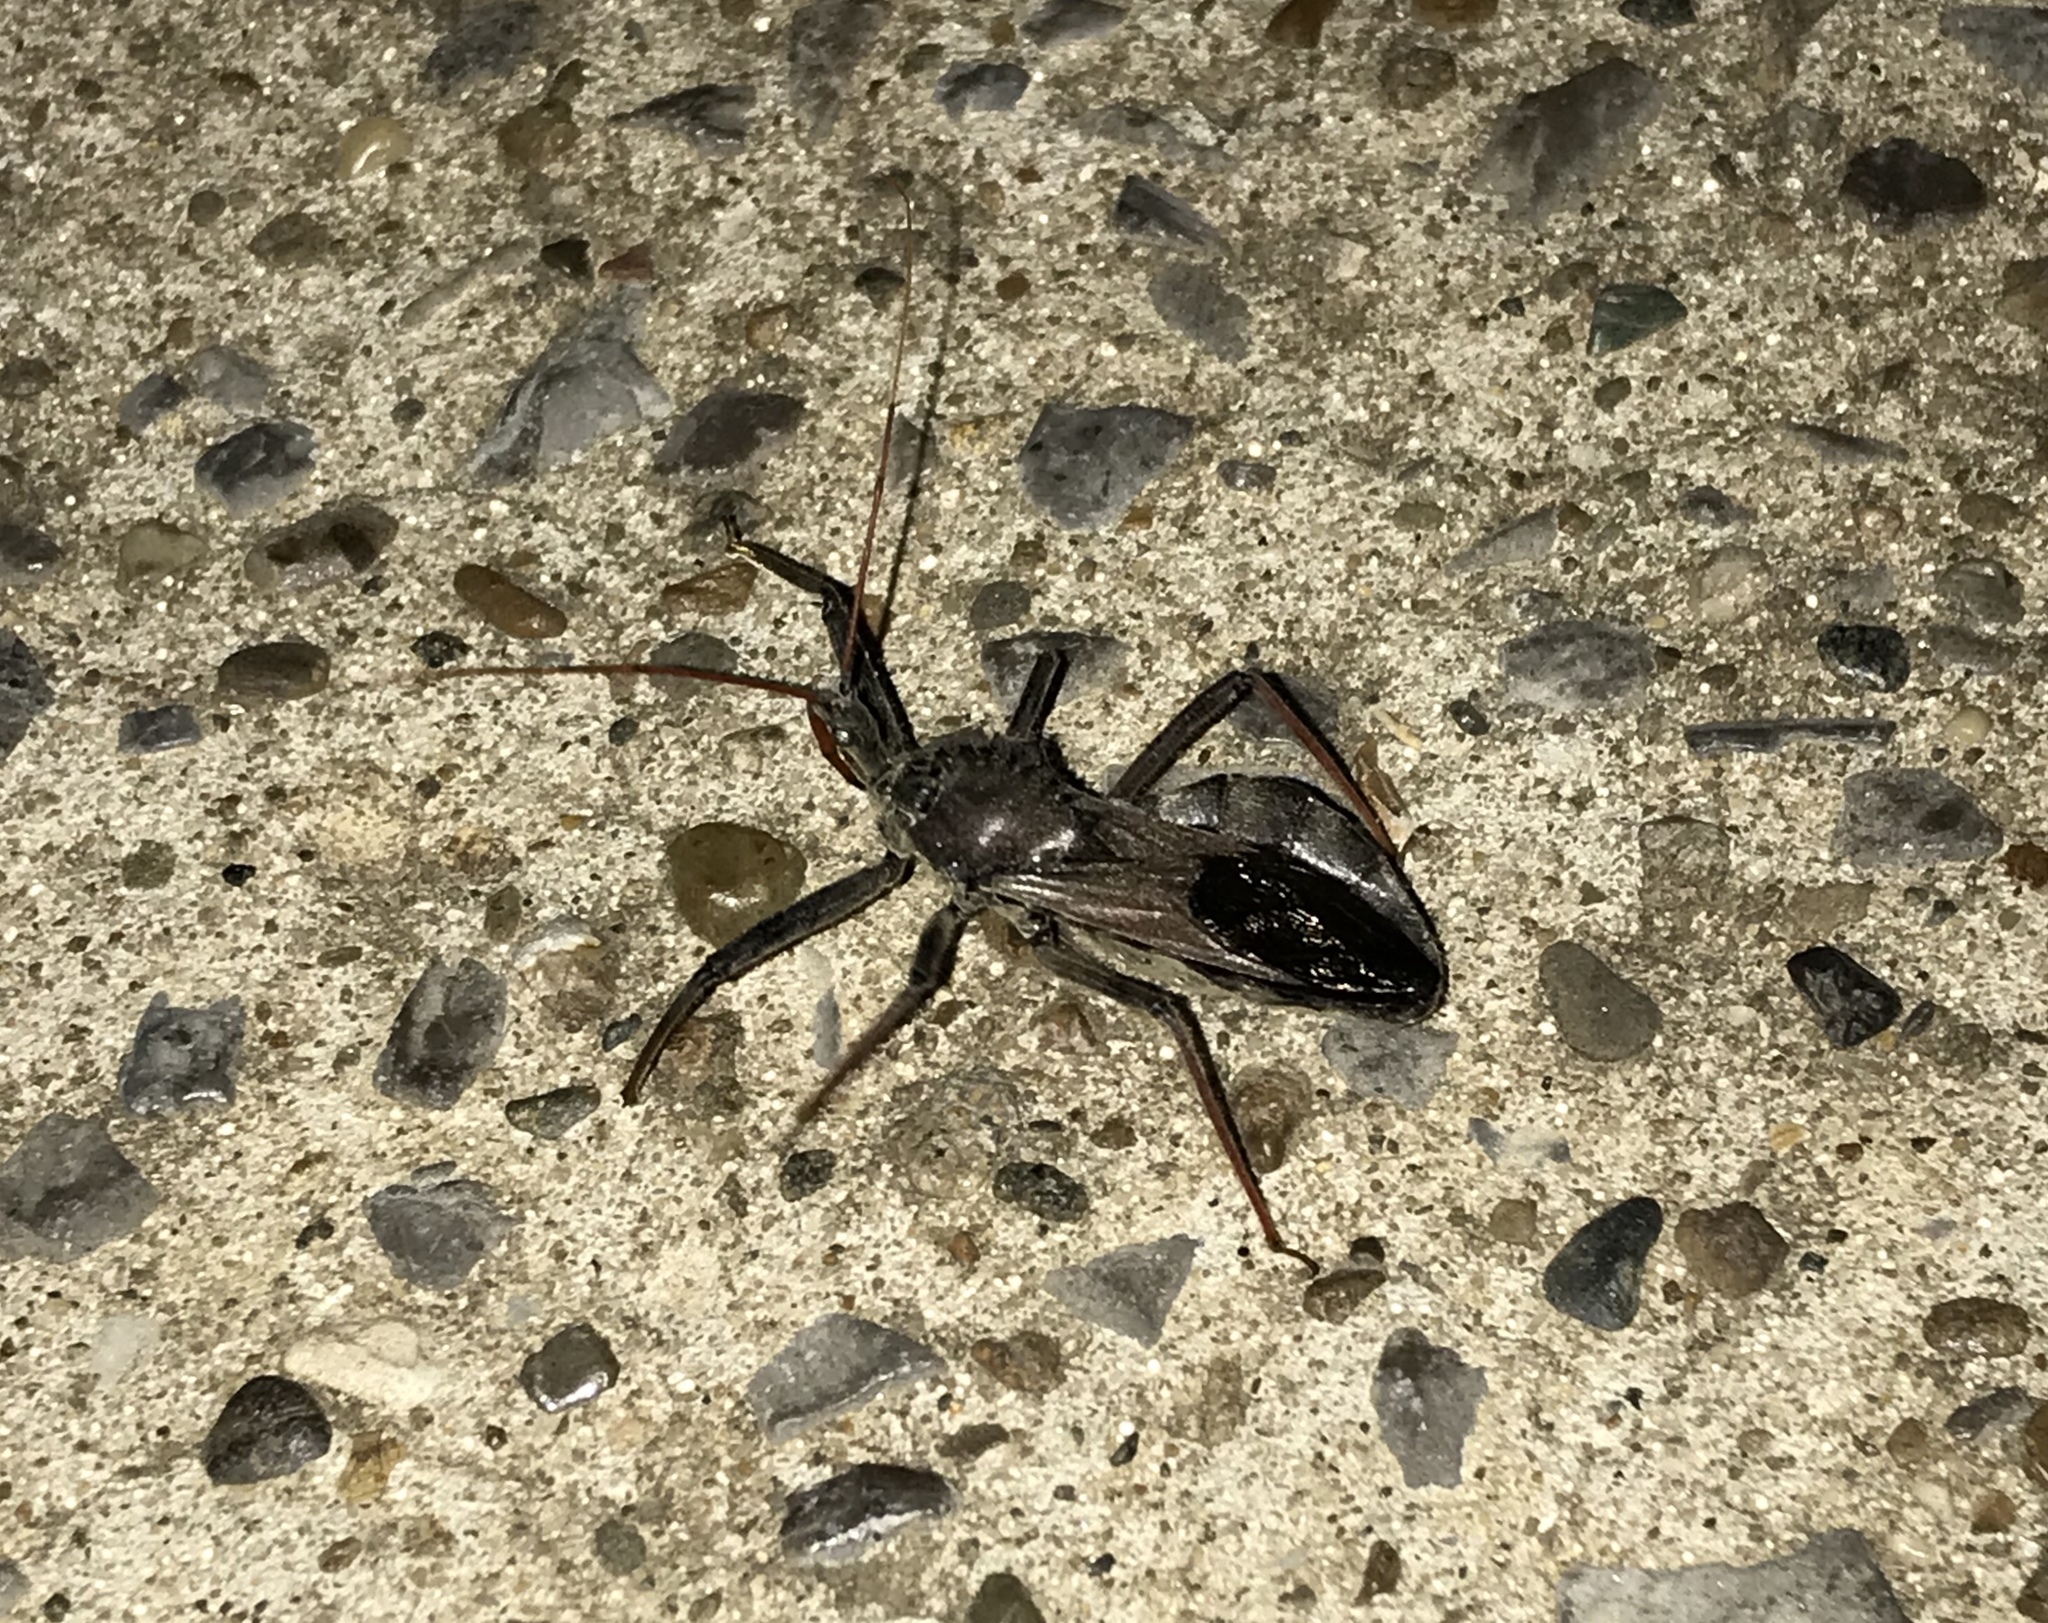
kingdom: Animalia
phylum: Arthropoda
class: Insecta
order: Hemiptera
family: Reduviidae
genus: Arilus
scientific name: Arilus cristatus
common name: North american wheel bug
